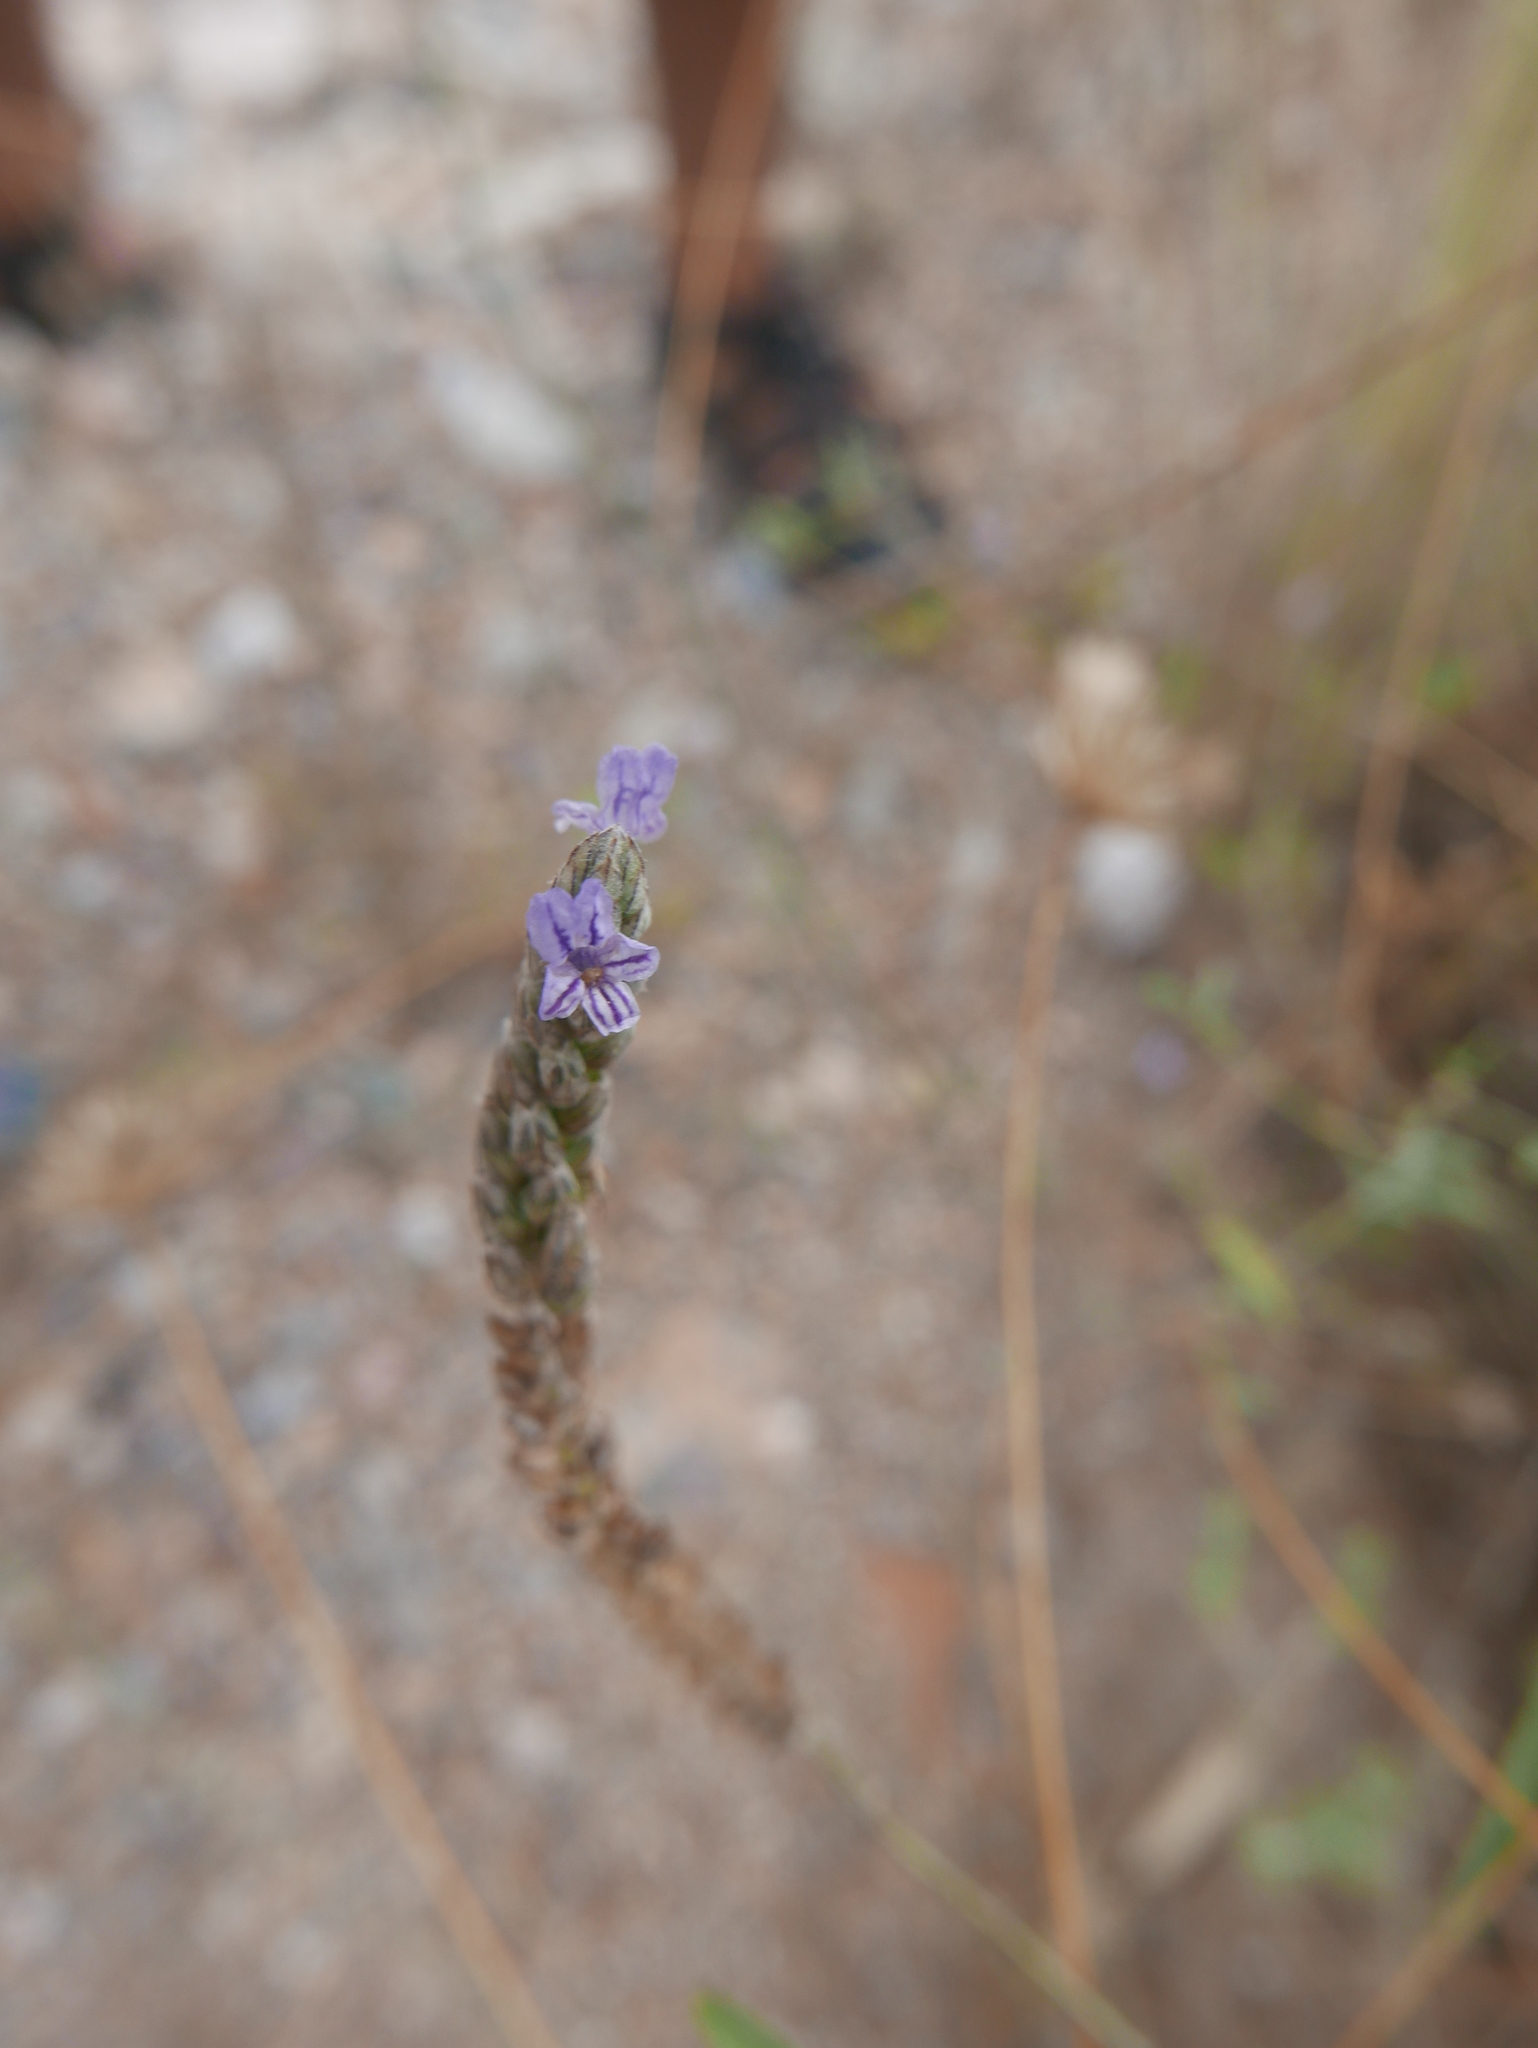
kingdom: Plantae
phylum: Tracheophyta
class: Magnoliopsida
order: Lamiales
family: Lamiaceae
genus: Lavandula
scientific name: Lavandula multifida
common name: Fern-leaf lavender
